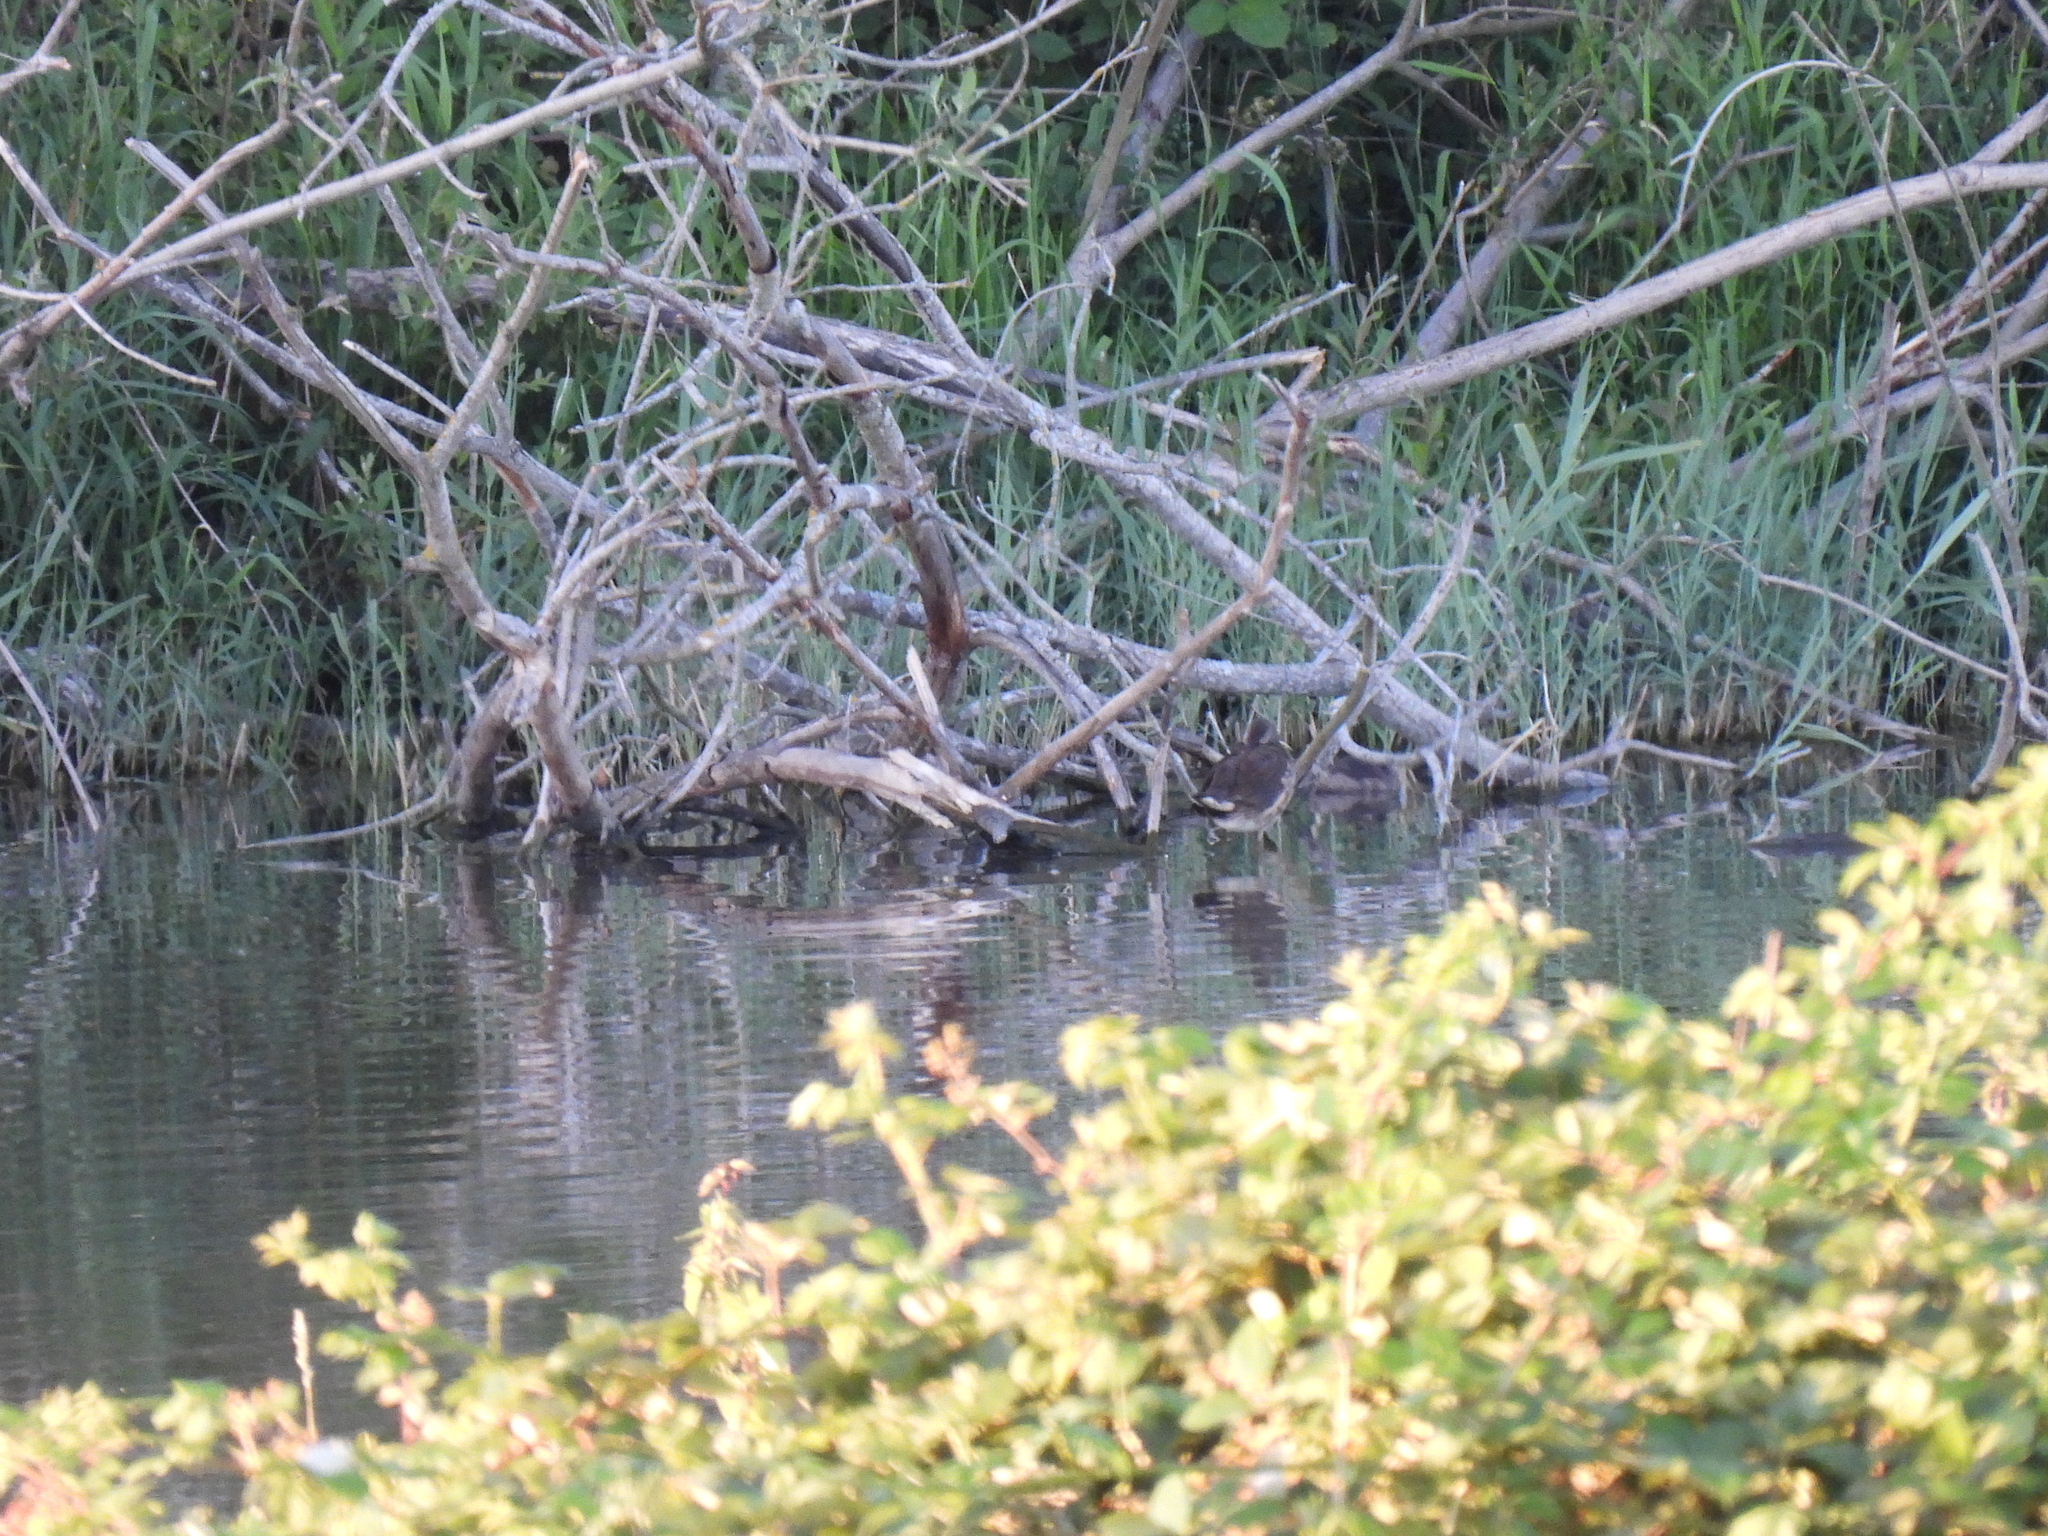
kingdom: Animalia
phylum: Chordata
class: Aves
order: Gruiformes
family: Rallidae
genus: Gallinula
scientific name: Gallinula chloropus
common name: Common moorhen
